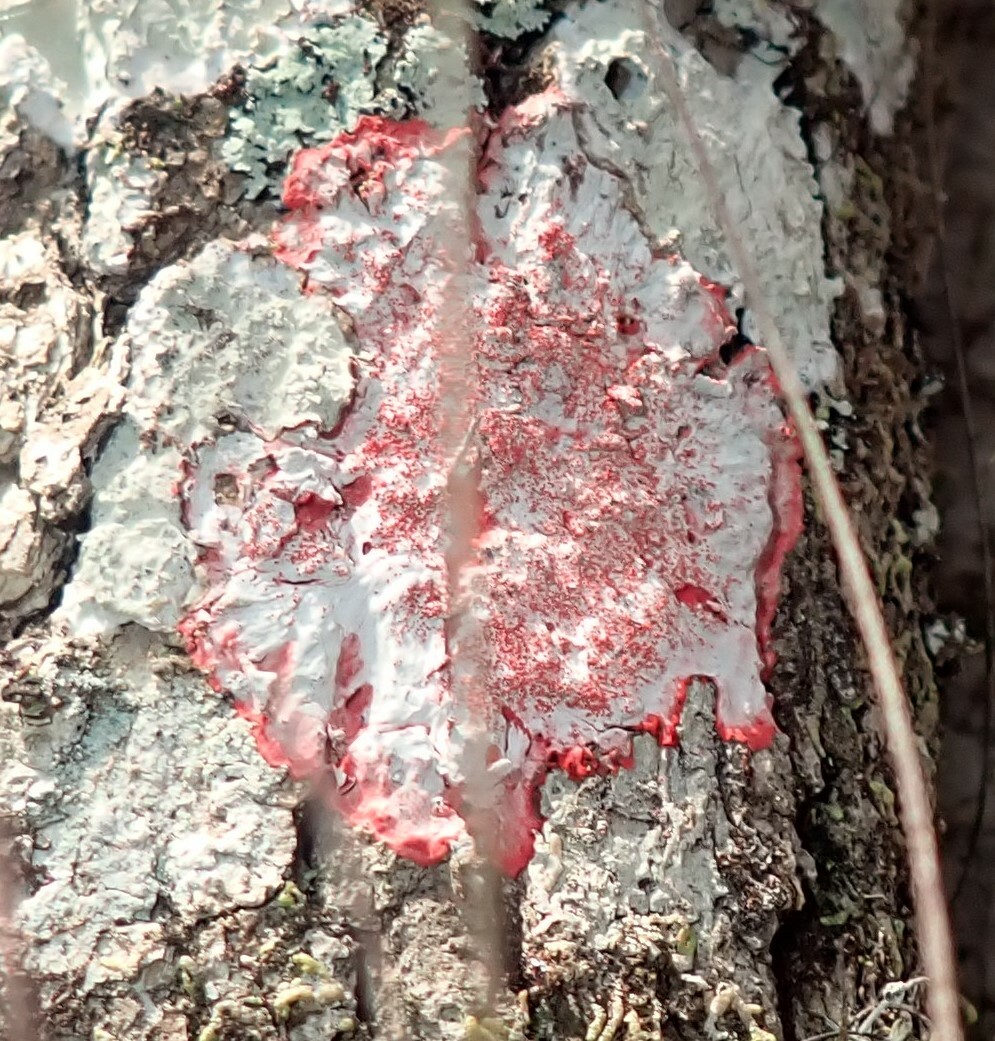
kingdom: Fungi
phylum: Ascomycota
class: Arthoniomycetes
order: Arthoniales
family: Arthoniaceae
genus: Herpothallon
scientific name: Herpothallon rubrocinctum
